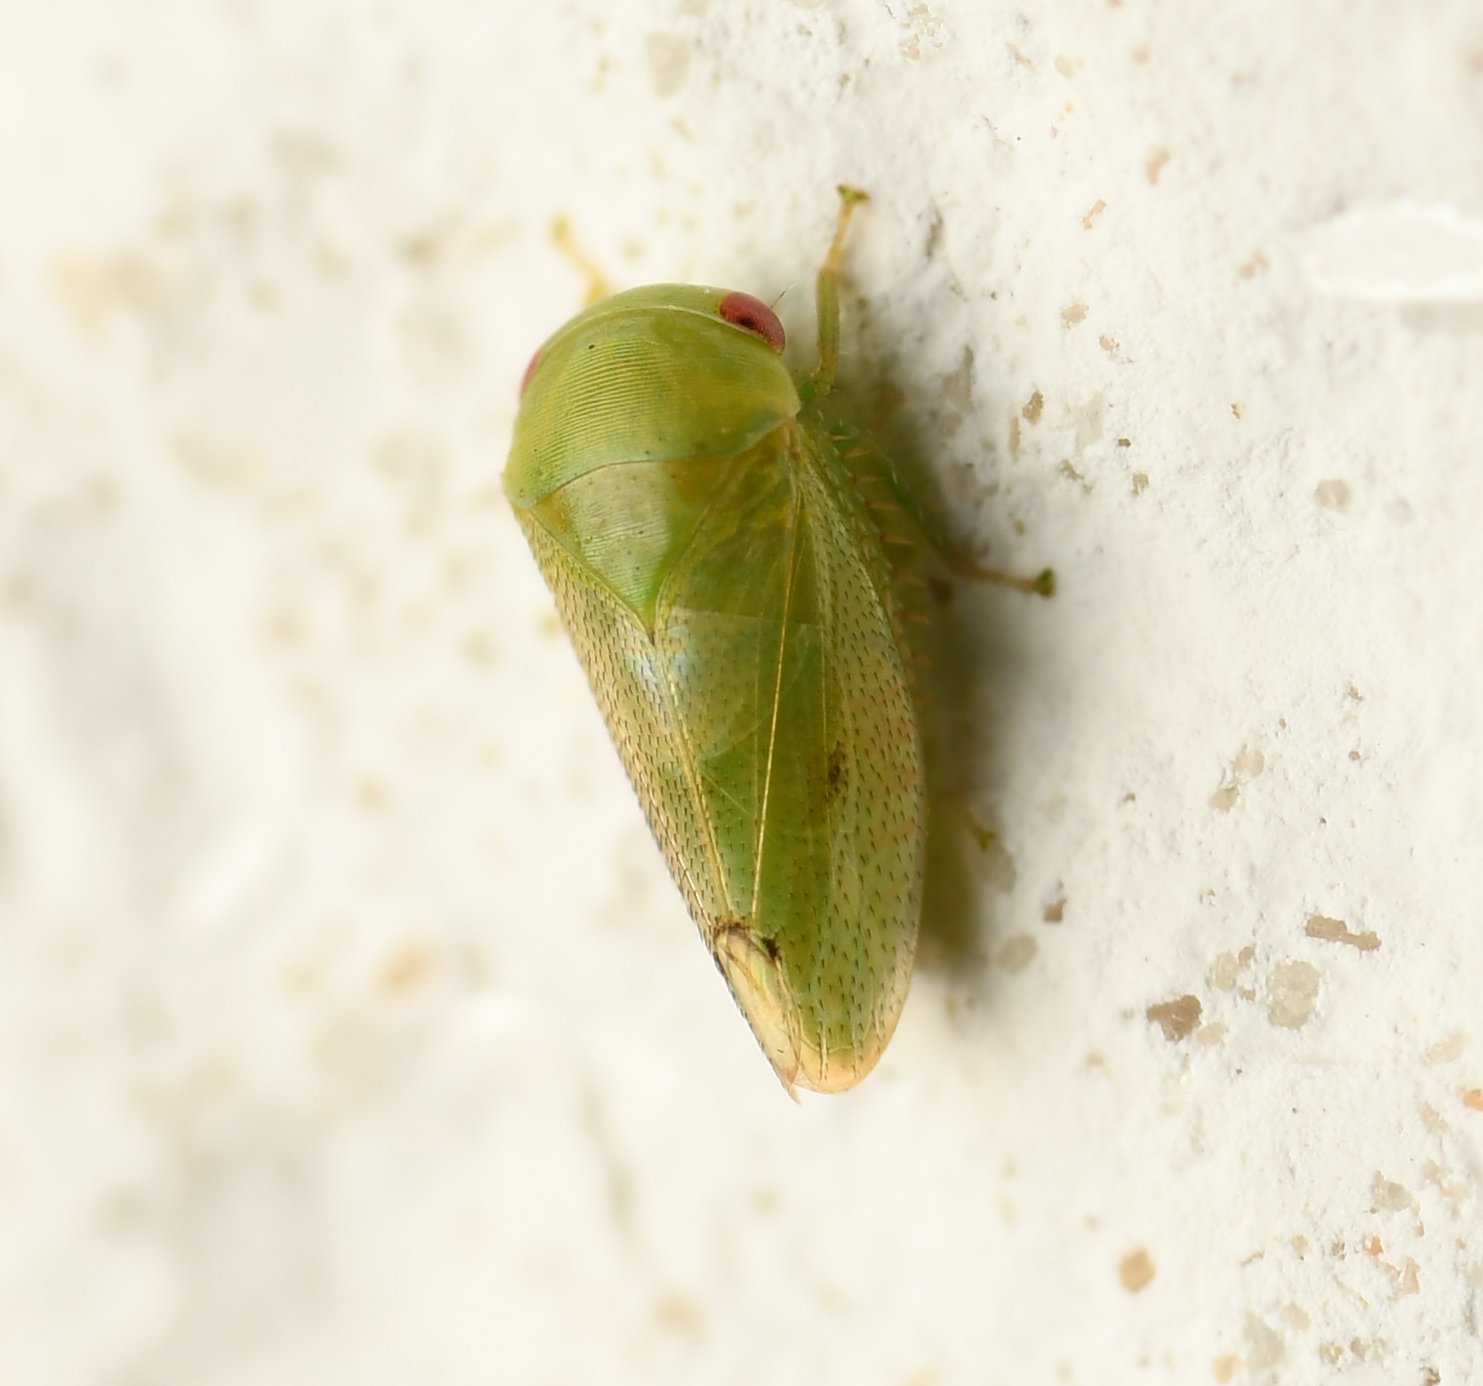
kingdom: Animalia
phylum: Arthropoda
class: Insecta
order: Hemiptera
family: Cicadellidae
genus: Penestragania
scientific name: Penestragania robusta
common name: Robust leafhopper
